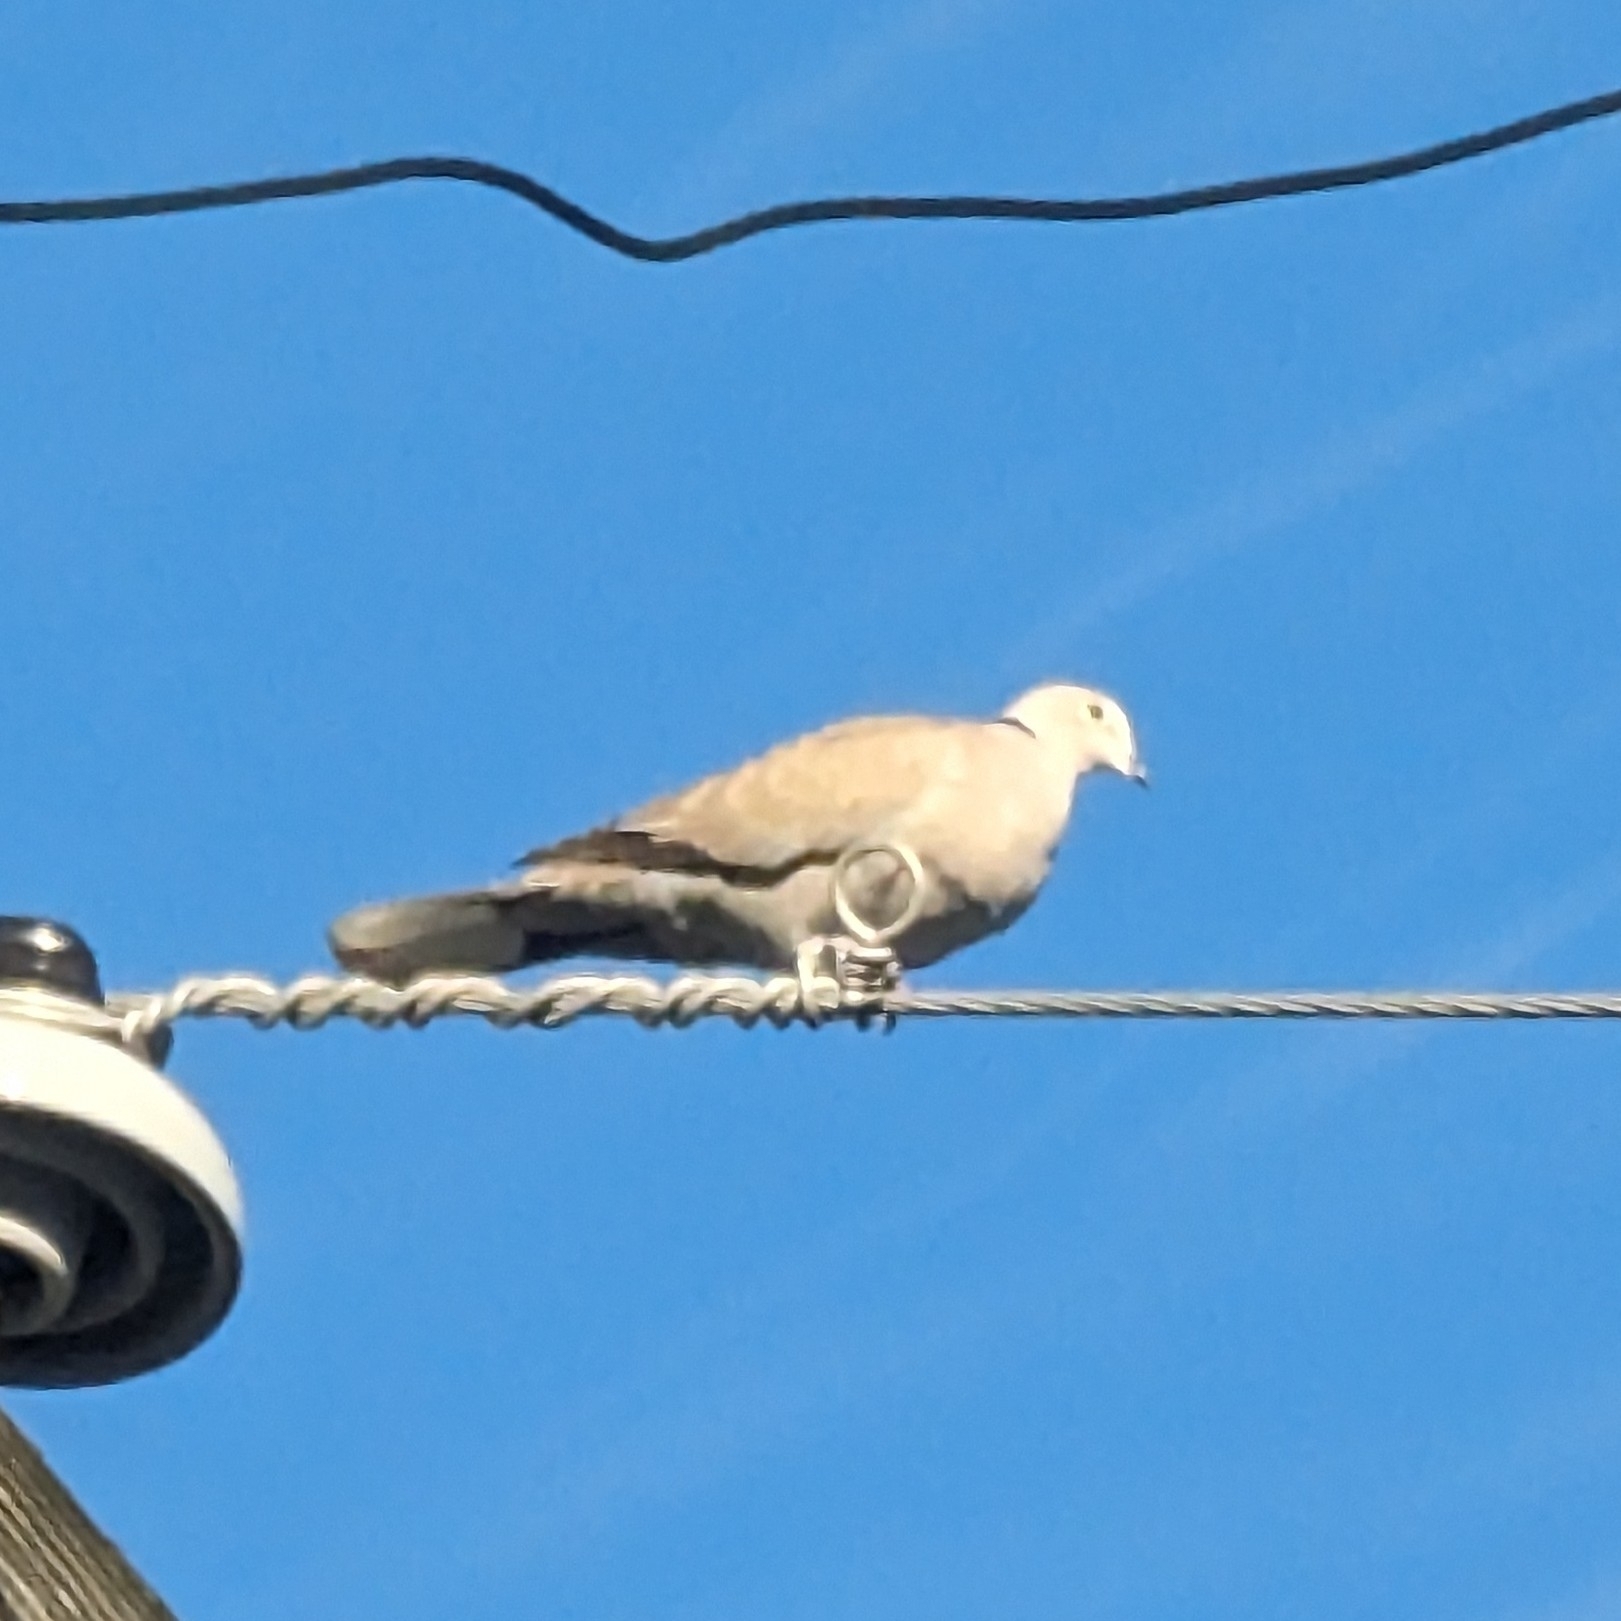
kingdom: Animalia
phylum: Chordata
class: Aves
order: Columbiformes
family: Columbidae
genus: Streptopelia
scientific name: Streptopelia decaocto
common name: Eurasian collared dove
